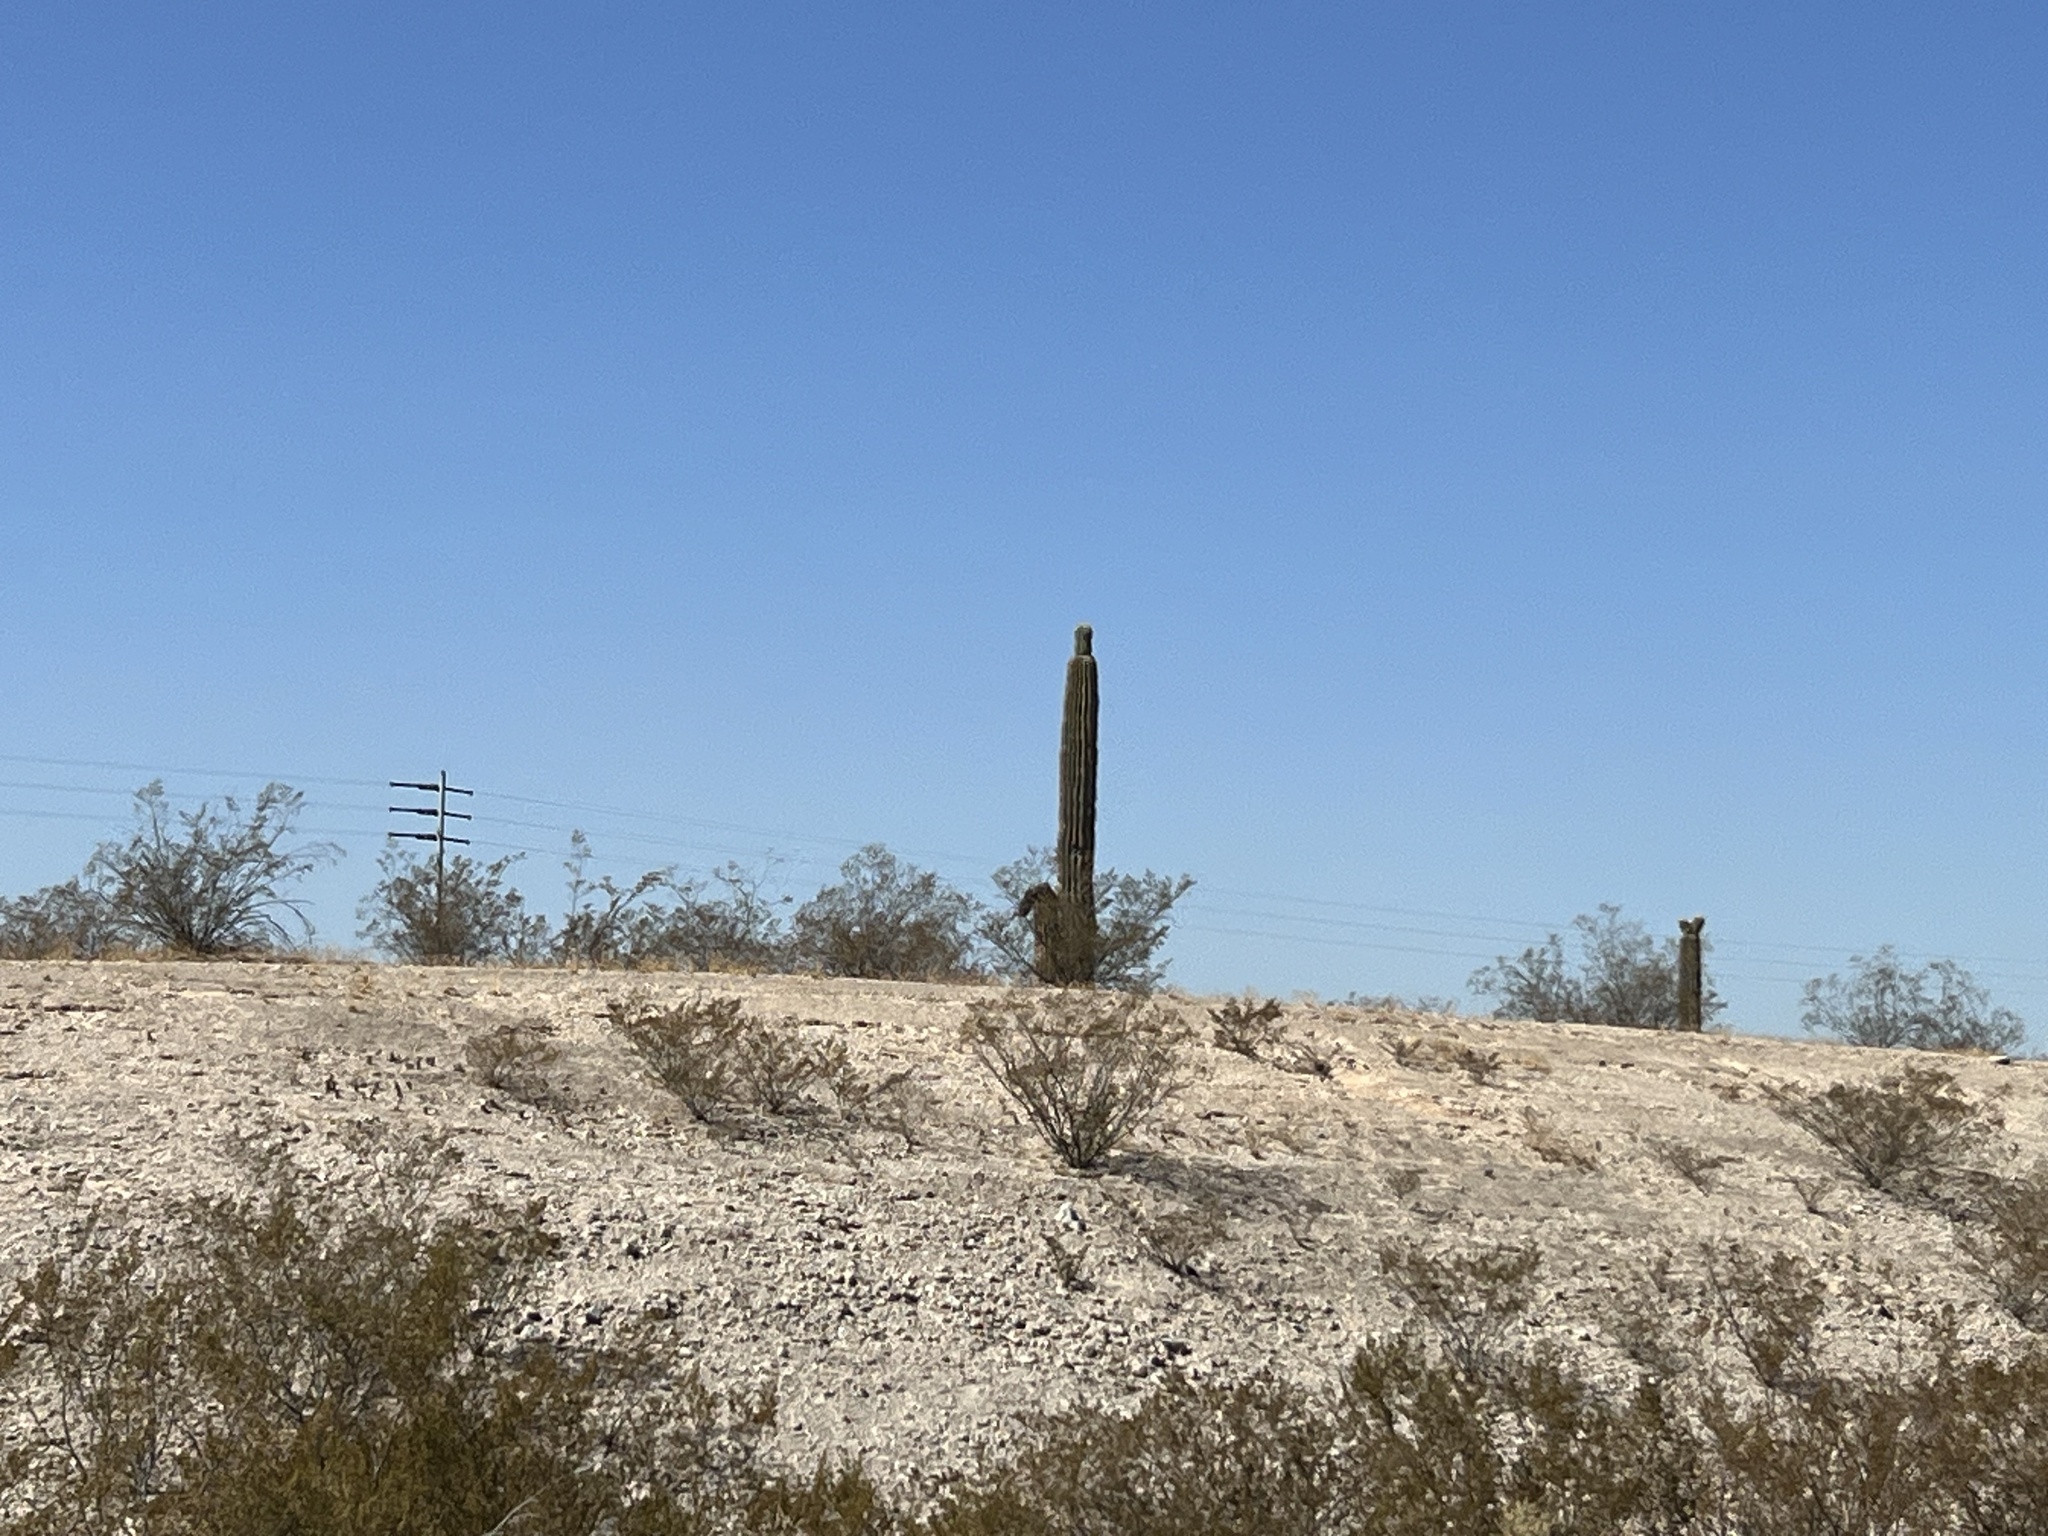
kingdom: Plantae
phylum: Tracheophyta
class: Magnoliopsida
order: Caryophyllales
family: Cactaceae
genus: Carnegiea
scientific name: Carnegiea gigantea
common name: Saguaro
